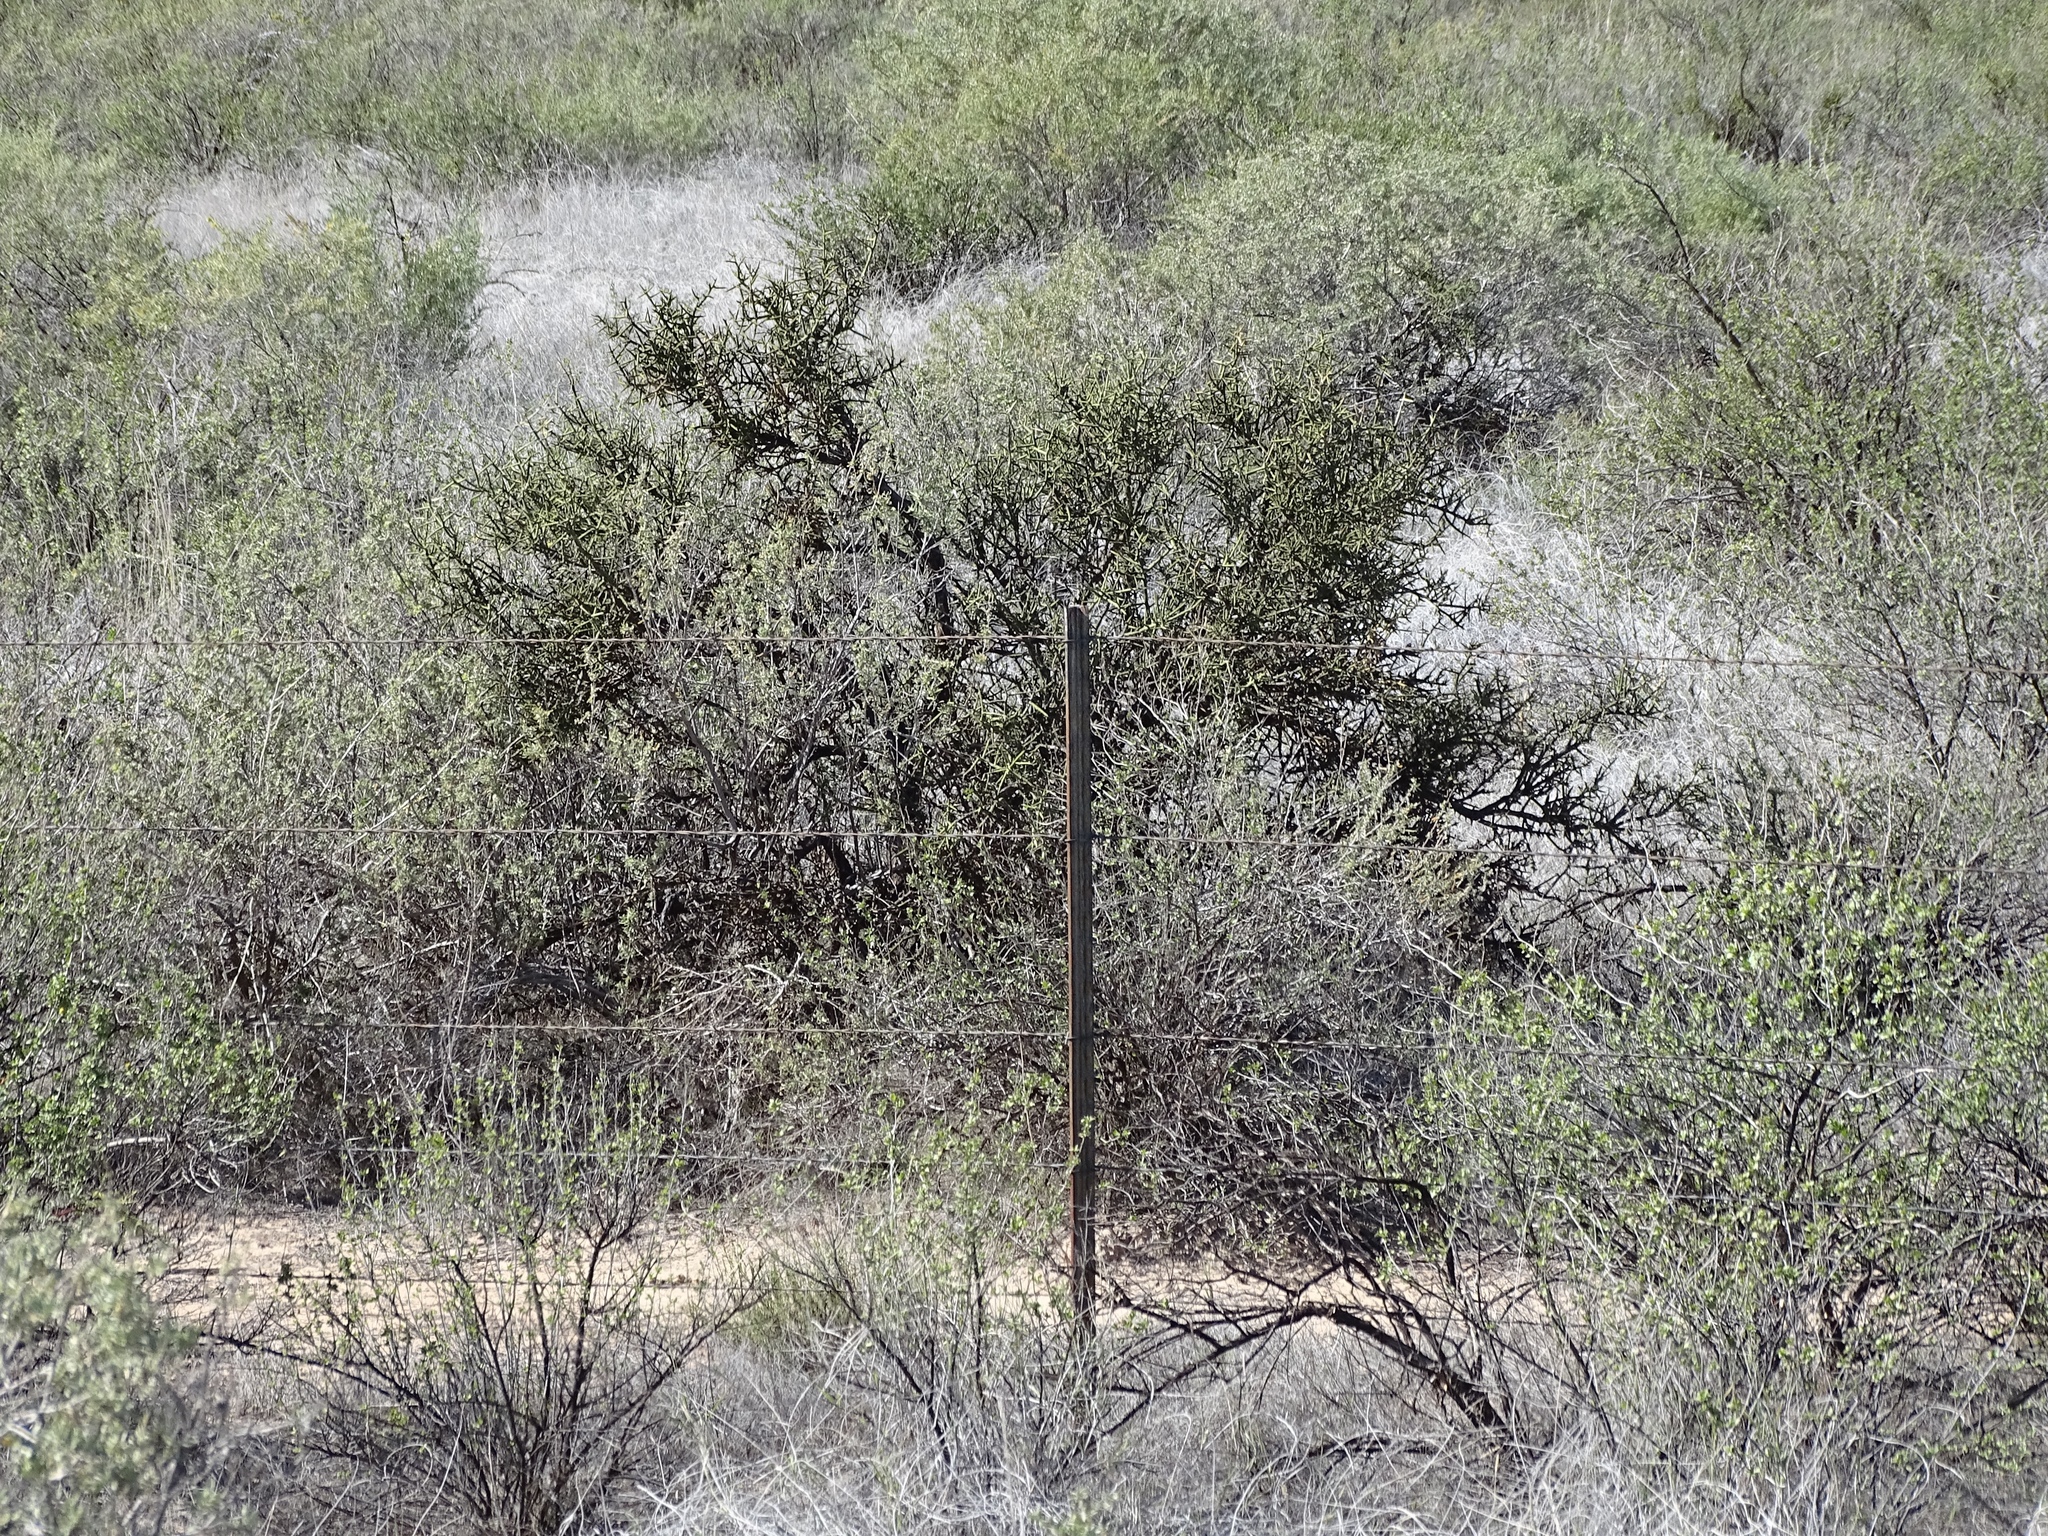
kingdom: Plantae
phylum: Tracheophyta
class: Magnoliopsida
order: Brassicales
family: Koeberliniaceae
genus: Koeberlinia
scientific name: Koeberlinia spinosa
